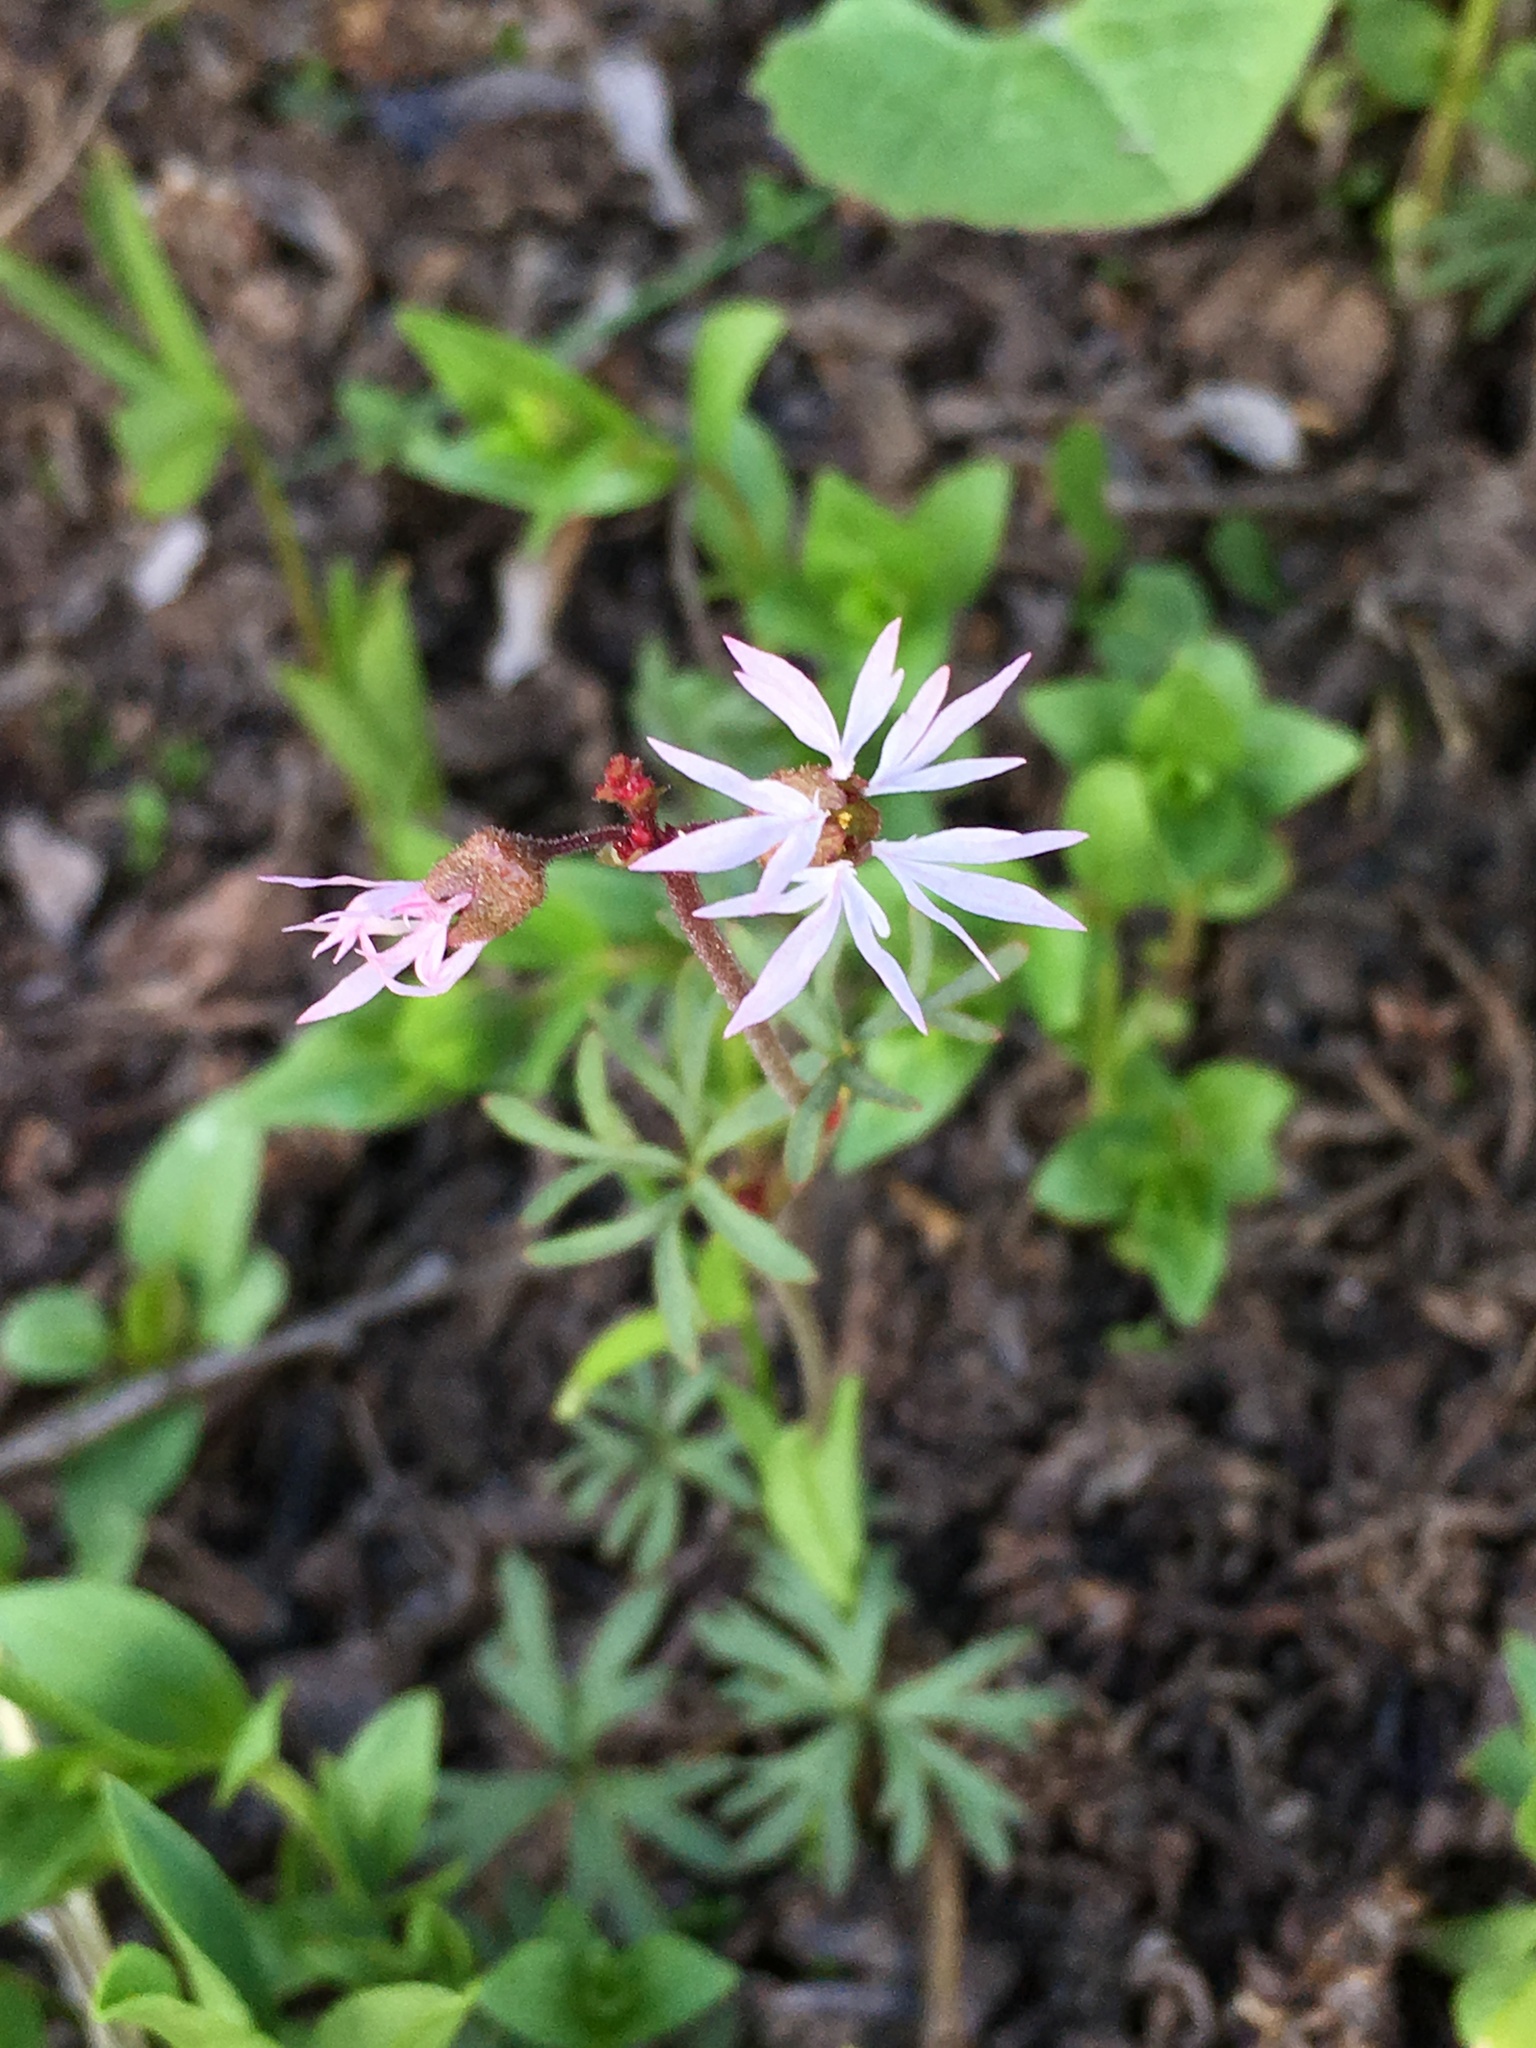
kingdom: Plantae
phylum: Tracheophyta
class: Magnoliopsida
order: Saxifragales
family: Saxifragaceae
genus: Lithophragma
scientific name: Lithophragma glabrum
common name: Bulbous prairie-star
